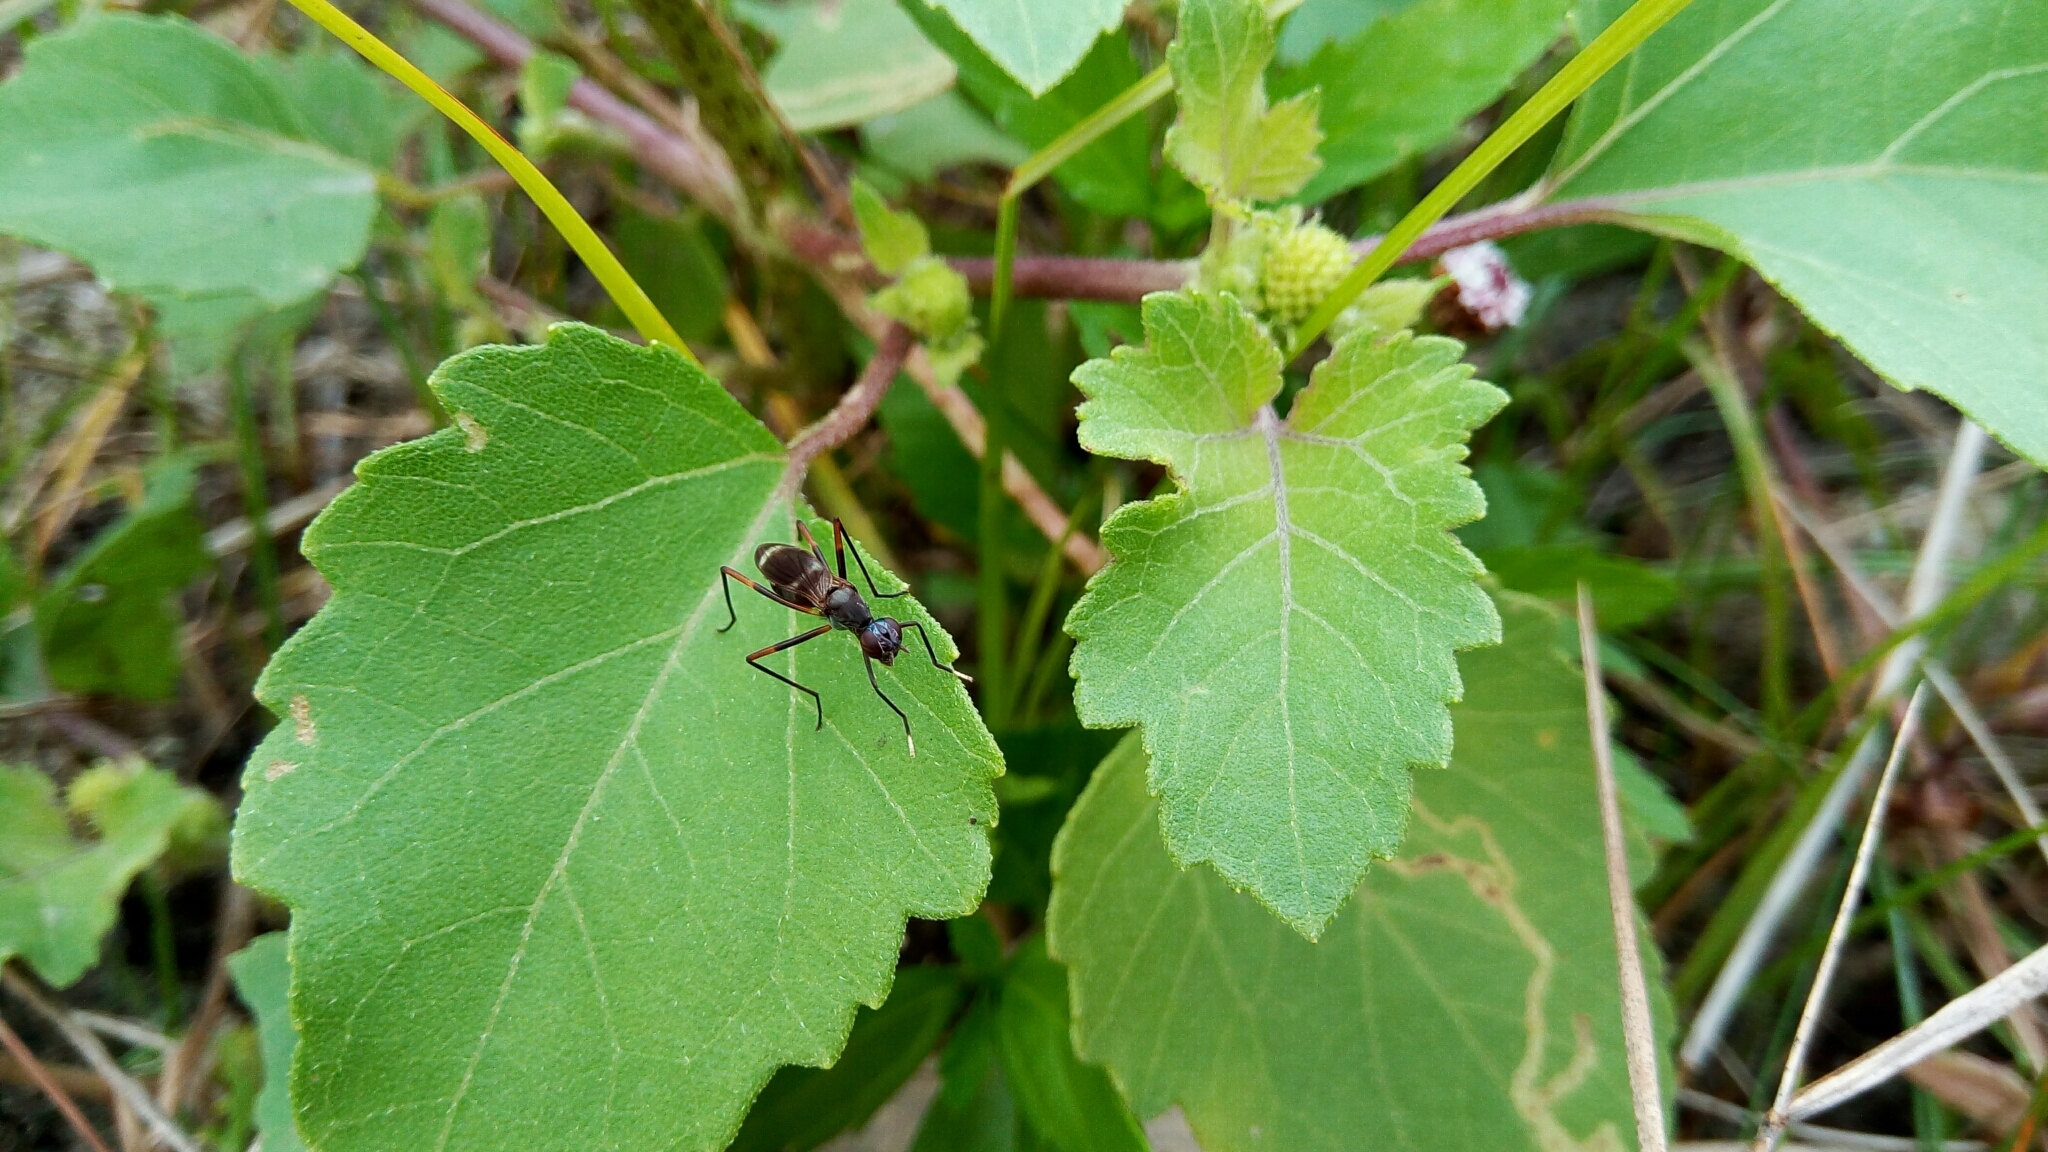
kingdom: Animalia
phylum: Arthropoda
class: Insecta
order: Diptera
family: Micropezidae
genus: Taeniaptera
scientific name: Taeniaptera trivittata
